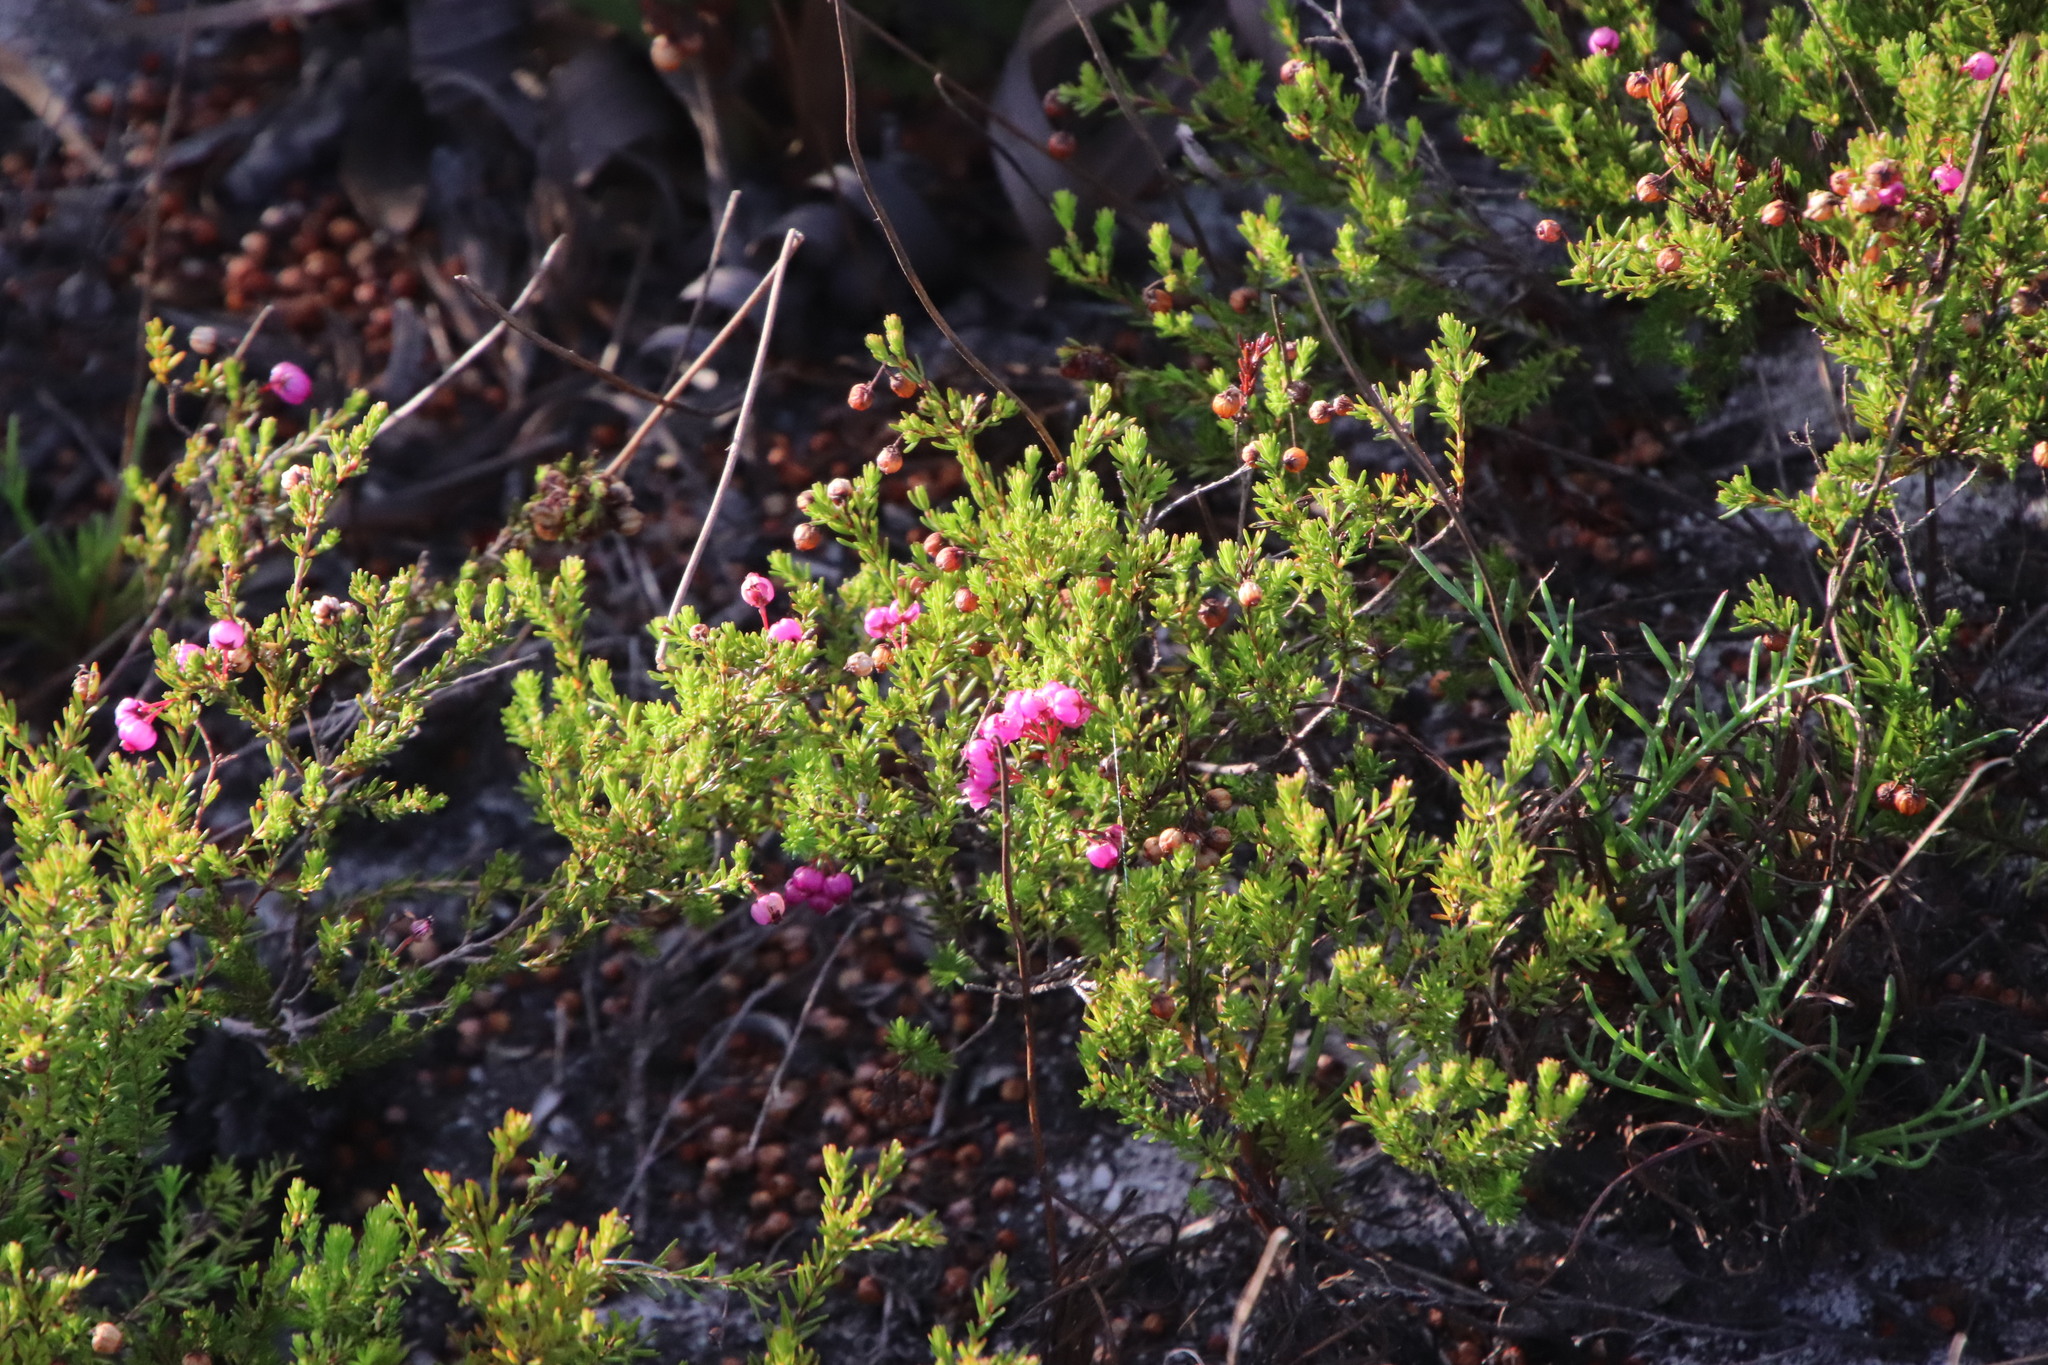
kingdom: Plantae
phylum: Tracheophyta
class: Magnoliopsida
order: Ericales
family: Ericaceae
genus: Erica
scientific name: Erica multumbellifera
